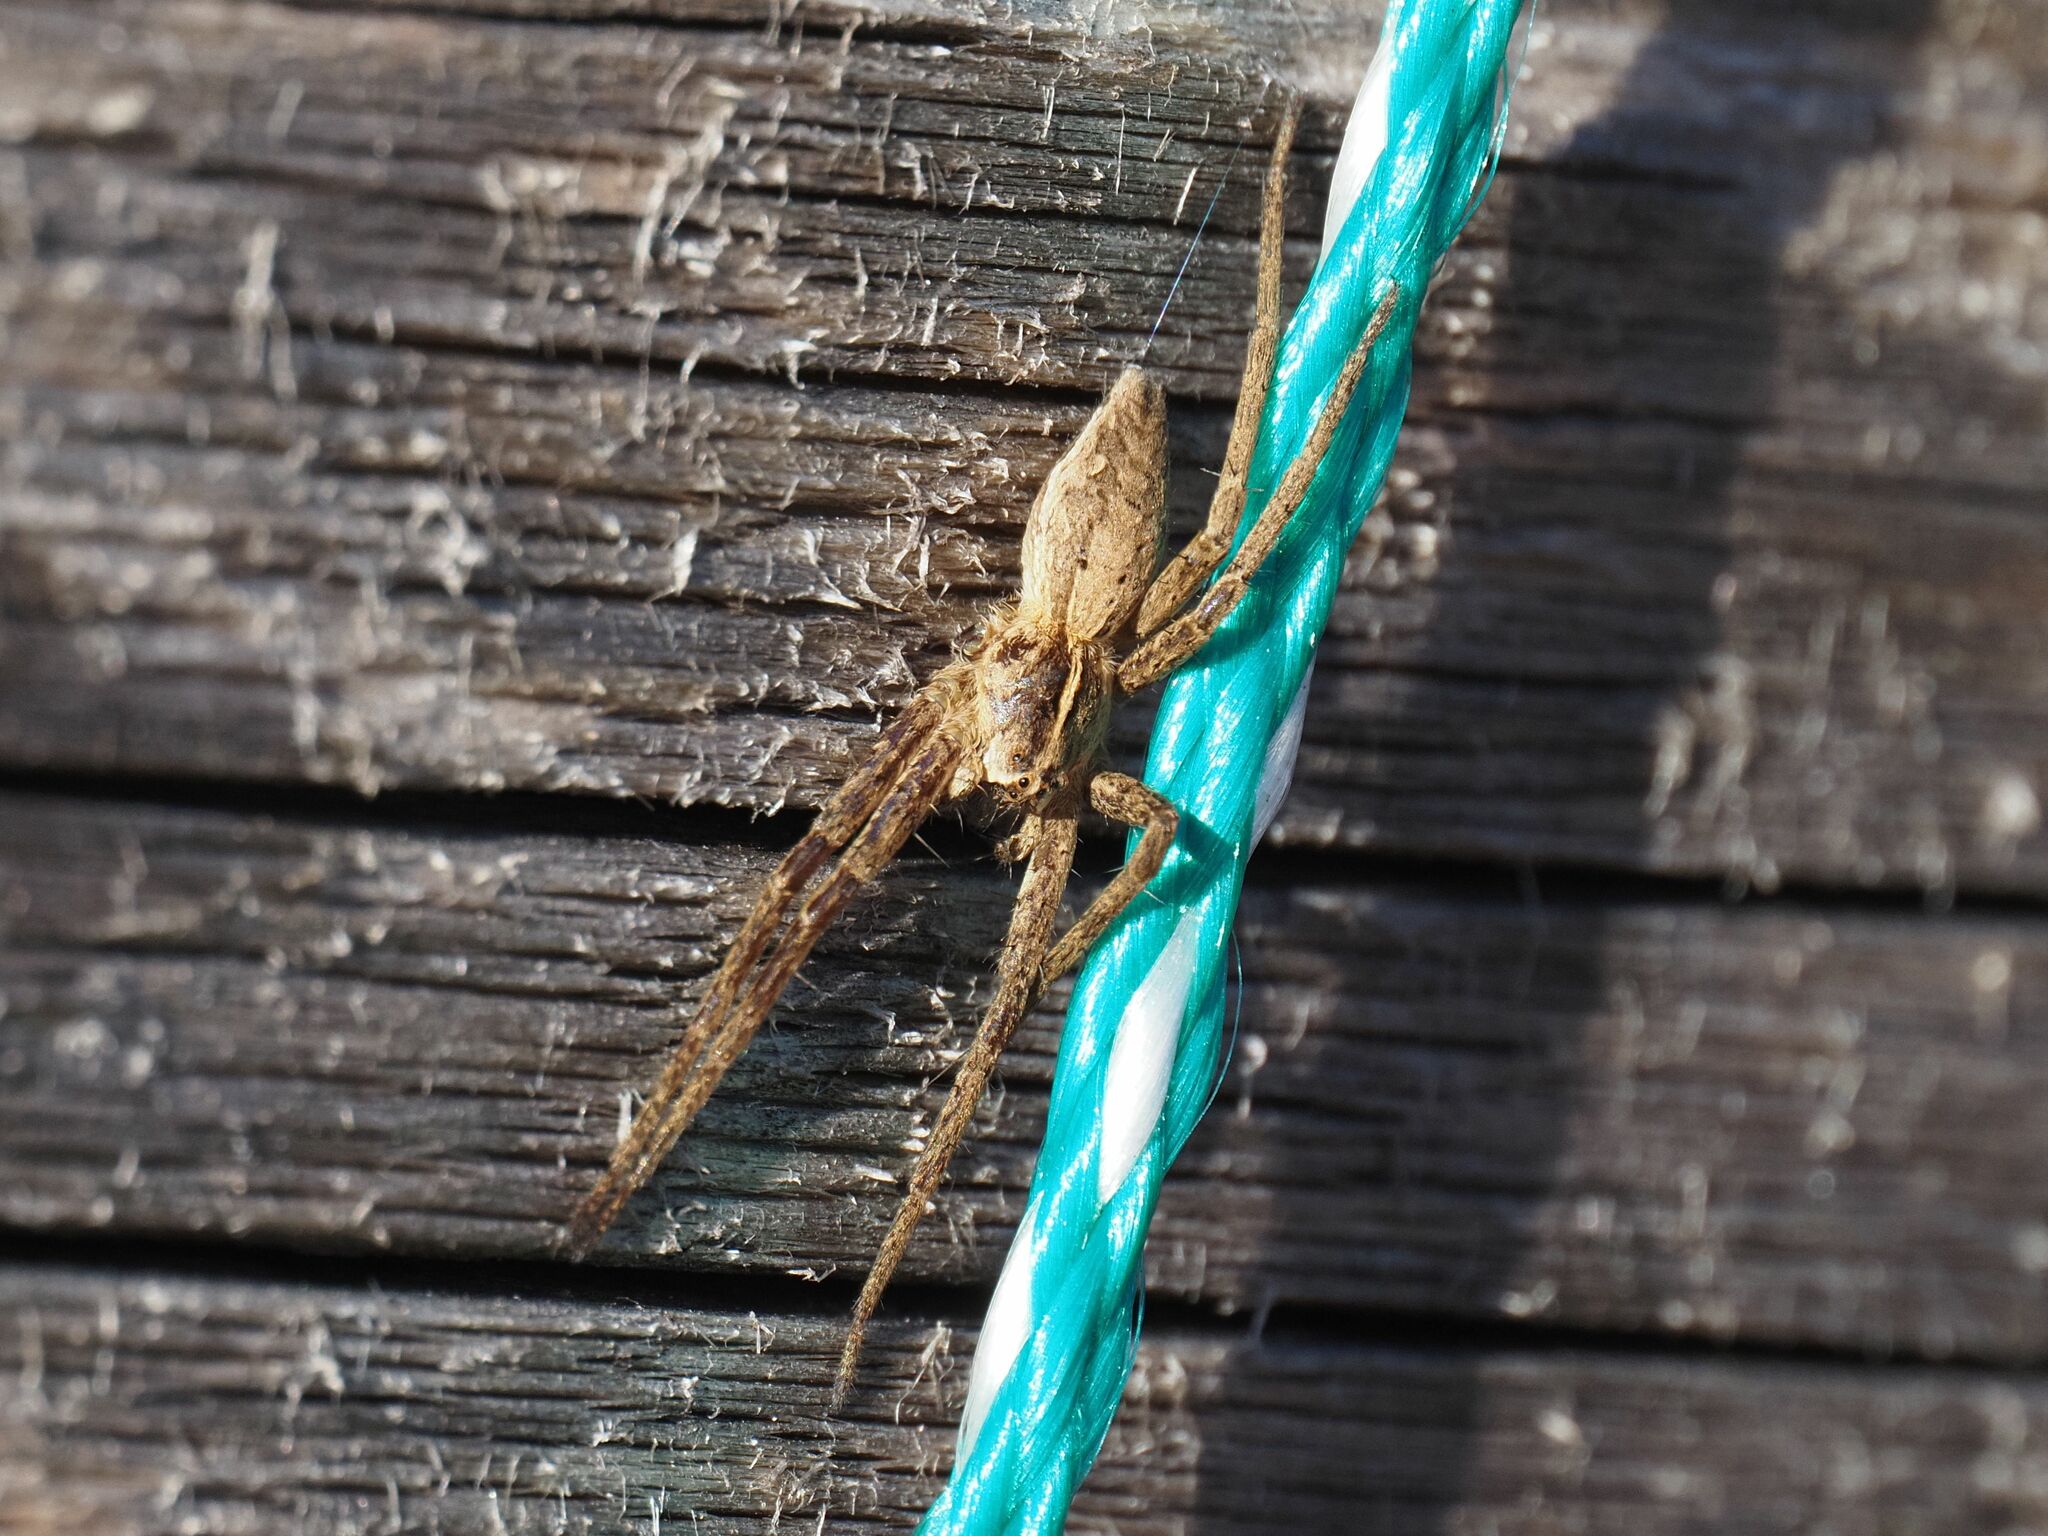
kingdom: Animalia
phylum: Arthropoda
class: Arachnida
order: Araneae
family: Pisauridae
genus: Pisaura
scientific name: Pisaura mirabilis
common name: Tent spider
